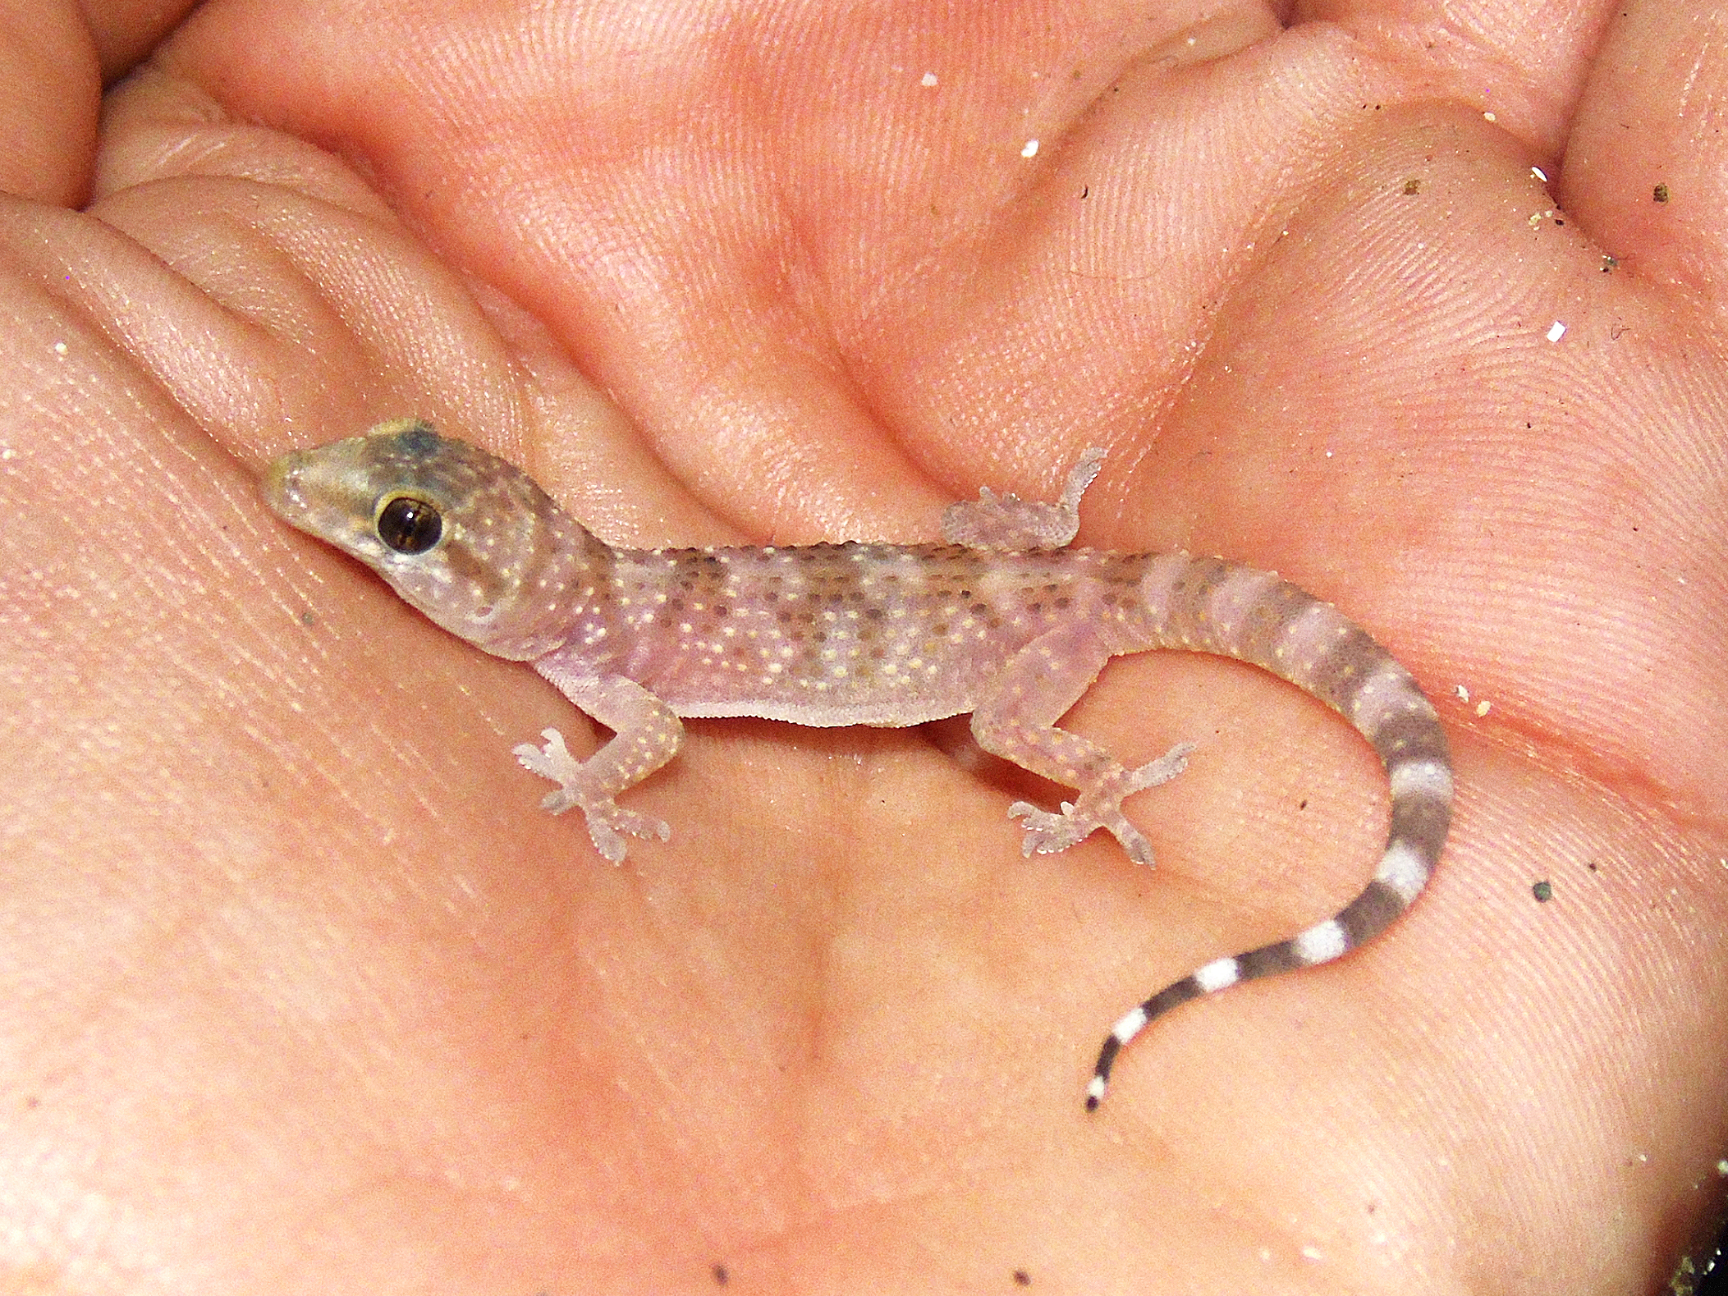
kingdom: Animalia
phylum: Chordata
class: Squamata
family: Gekkonidae
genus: Hemidactylus
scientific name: Hemidactylus turcicus
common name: Turkish gecko
